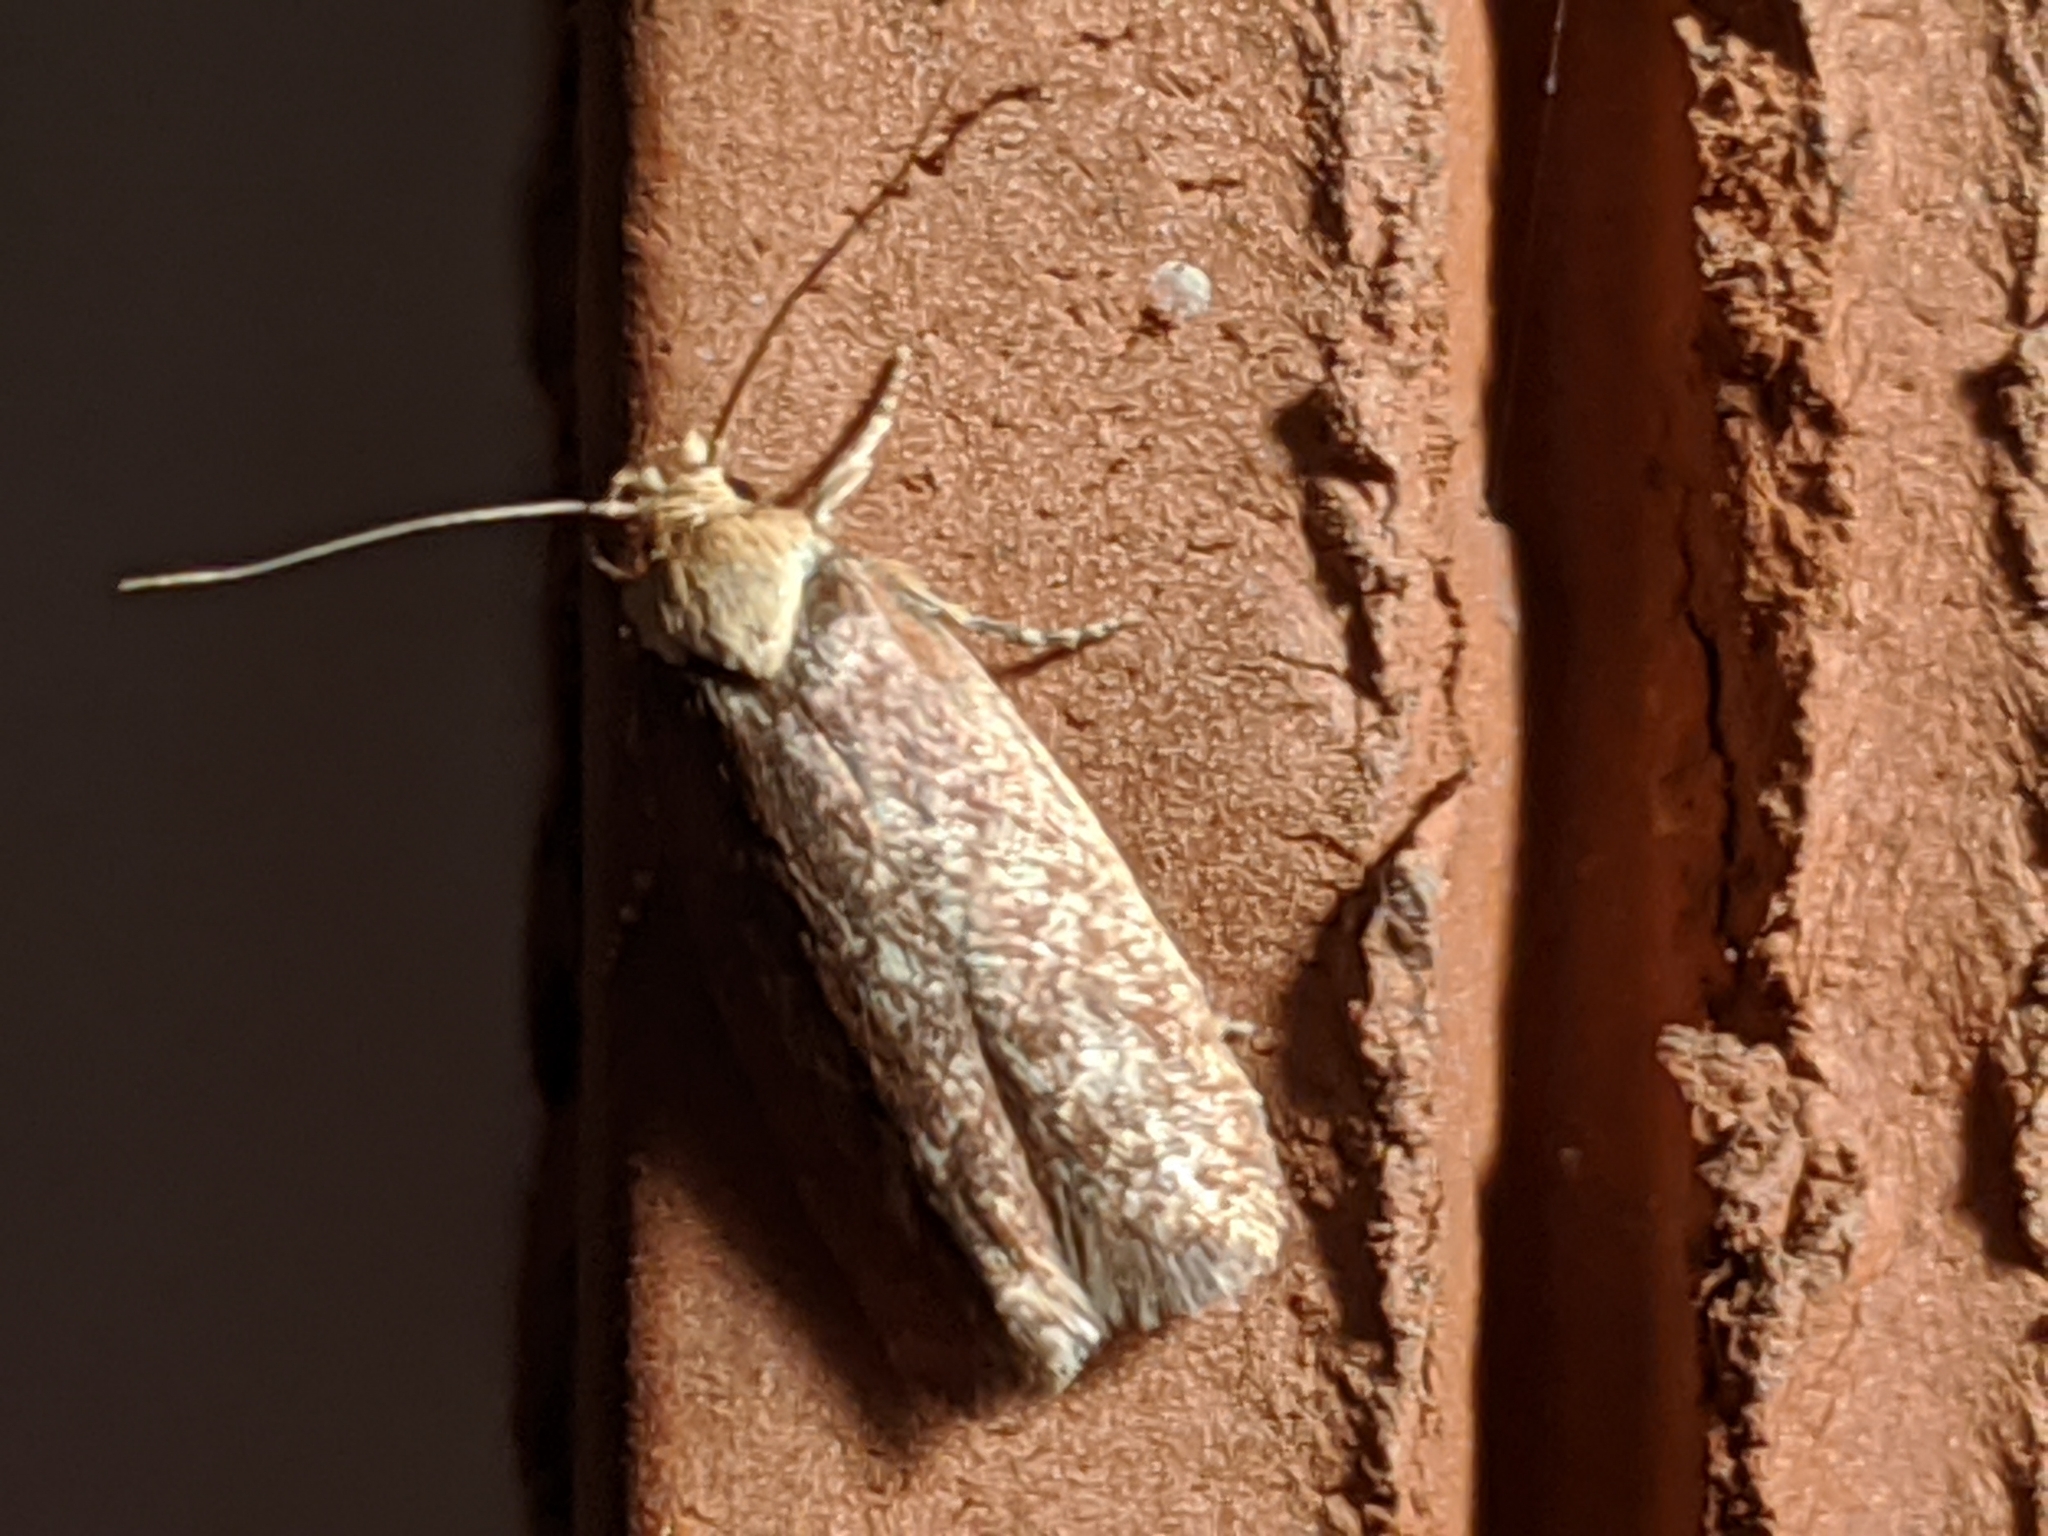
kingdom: Animalia
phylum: Arthropoda
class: Insecta
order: Lepidoptera
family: Depressariidae
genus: Depressaria
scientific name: Depressaria depressana
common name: Lost flat-body
